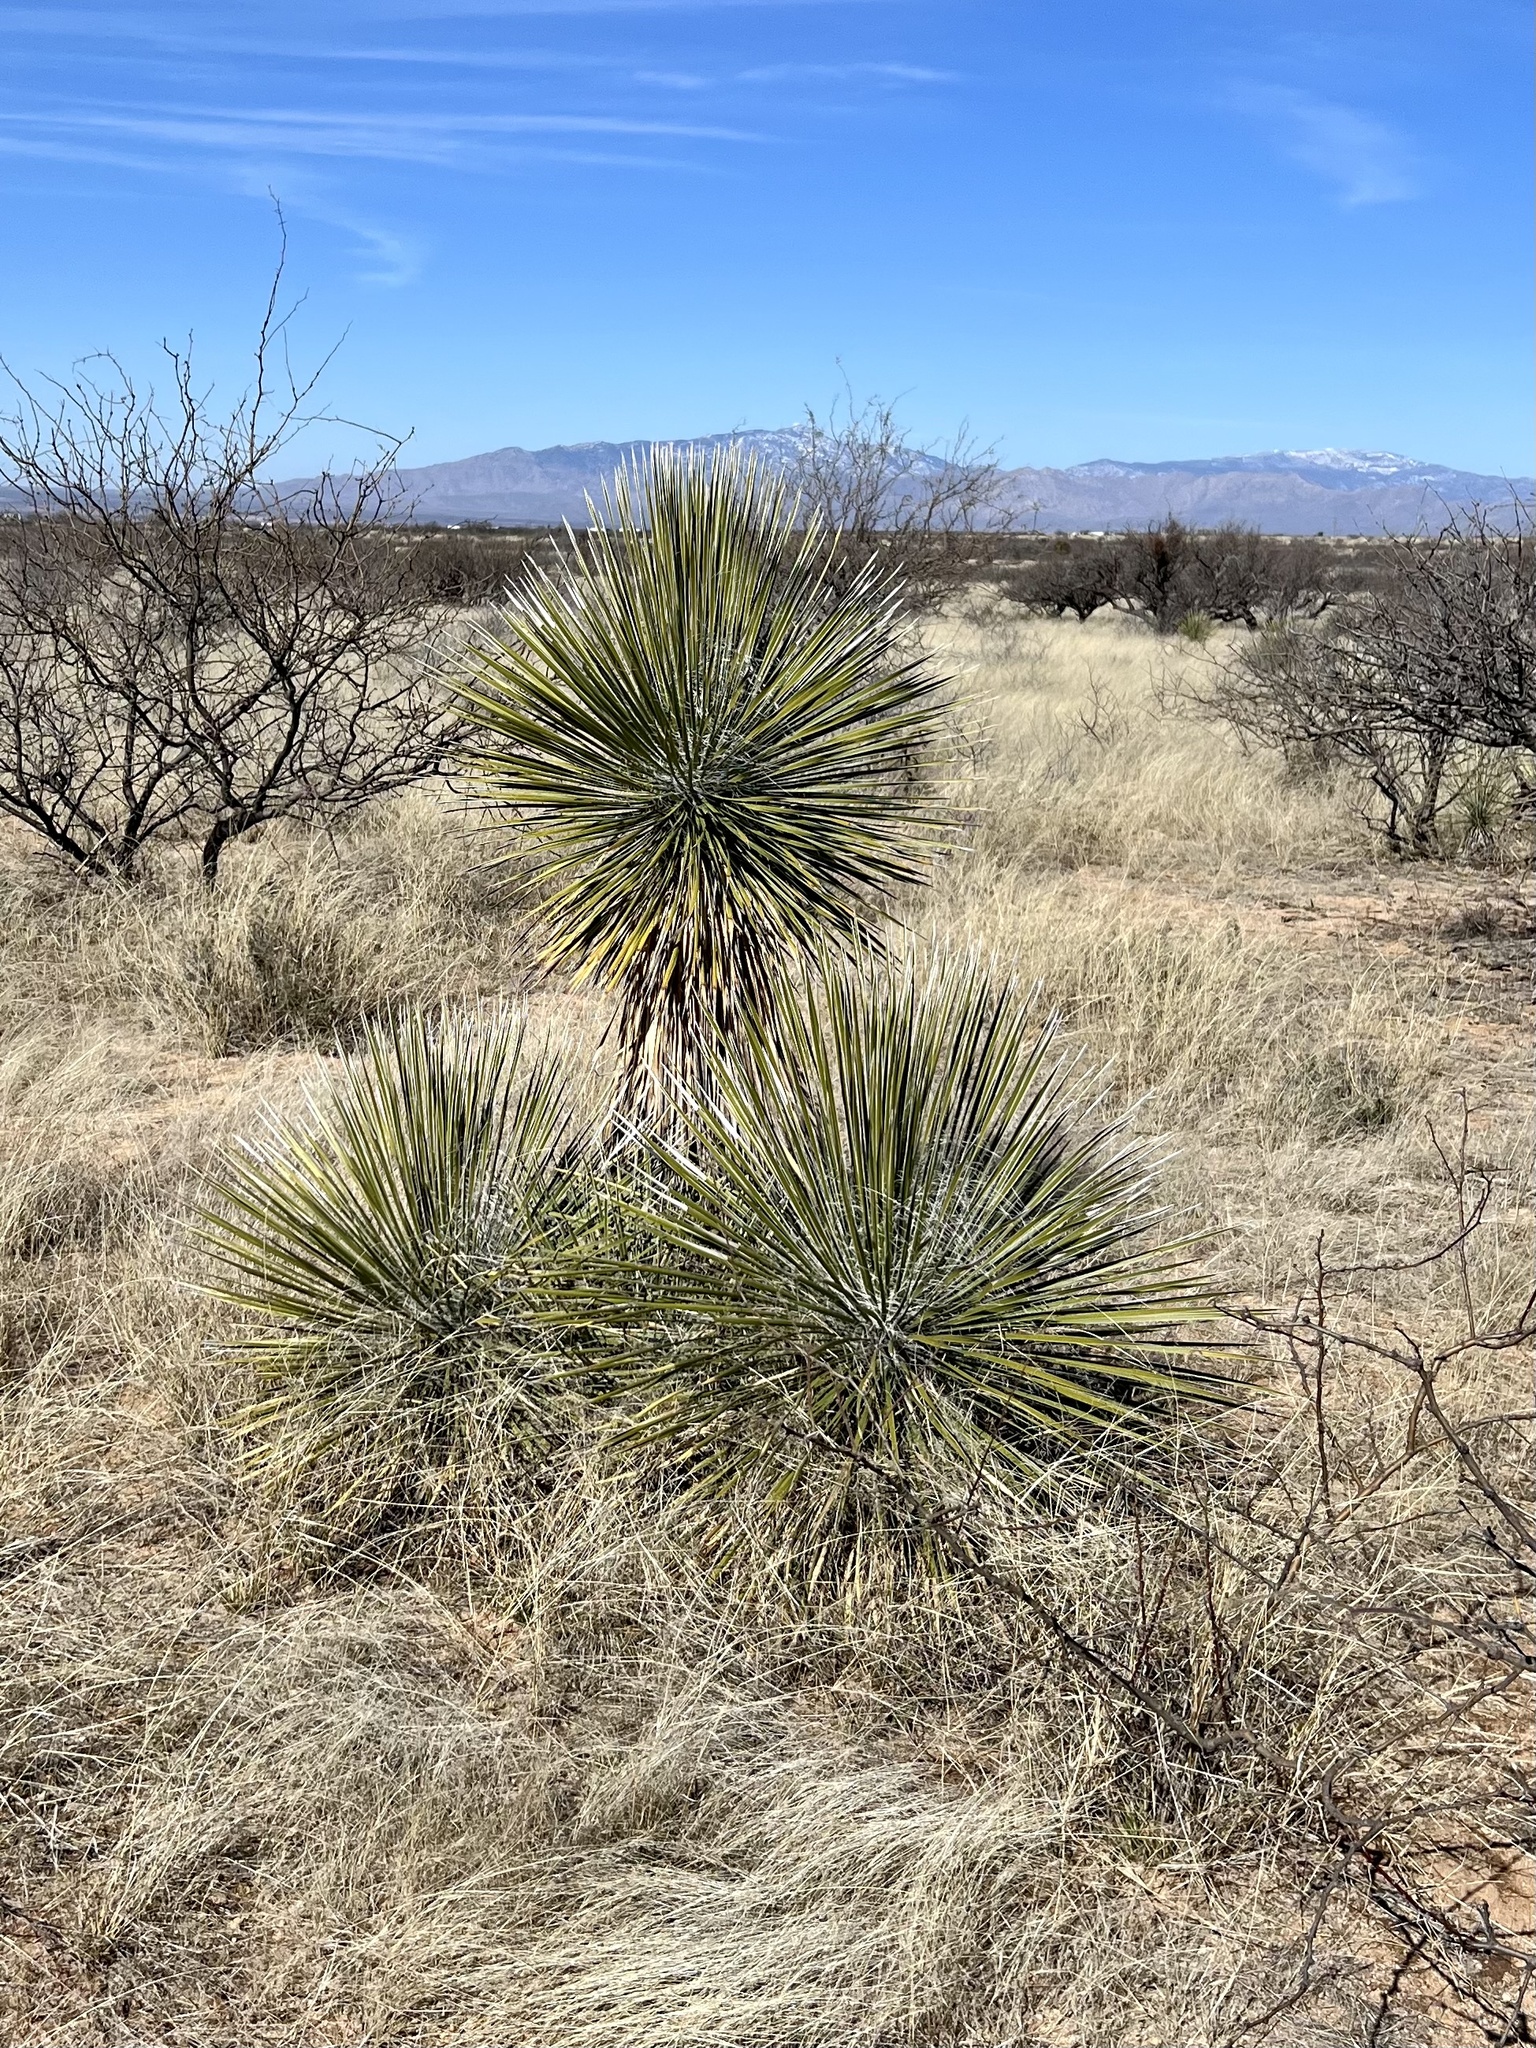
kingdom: Plantae
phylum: Tracheophyta
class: Liliopsida
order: Asparagales
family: Asparagaceae
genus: Yucca
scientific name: Yucca elata
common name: Palmella
